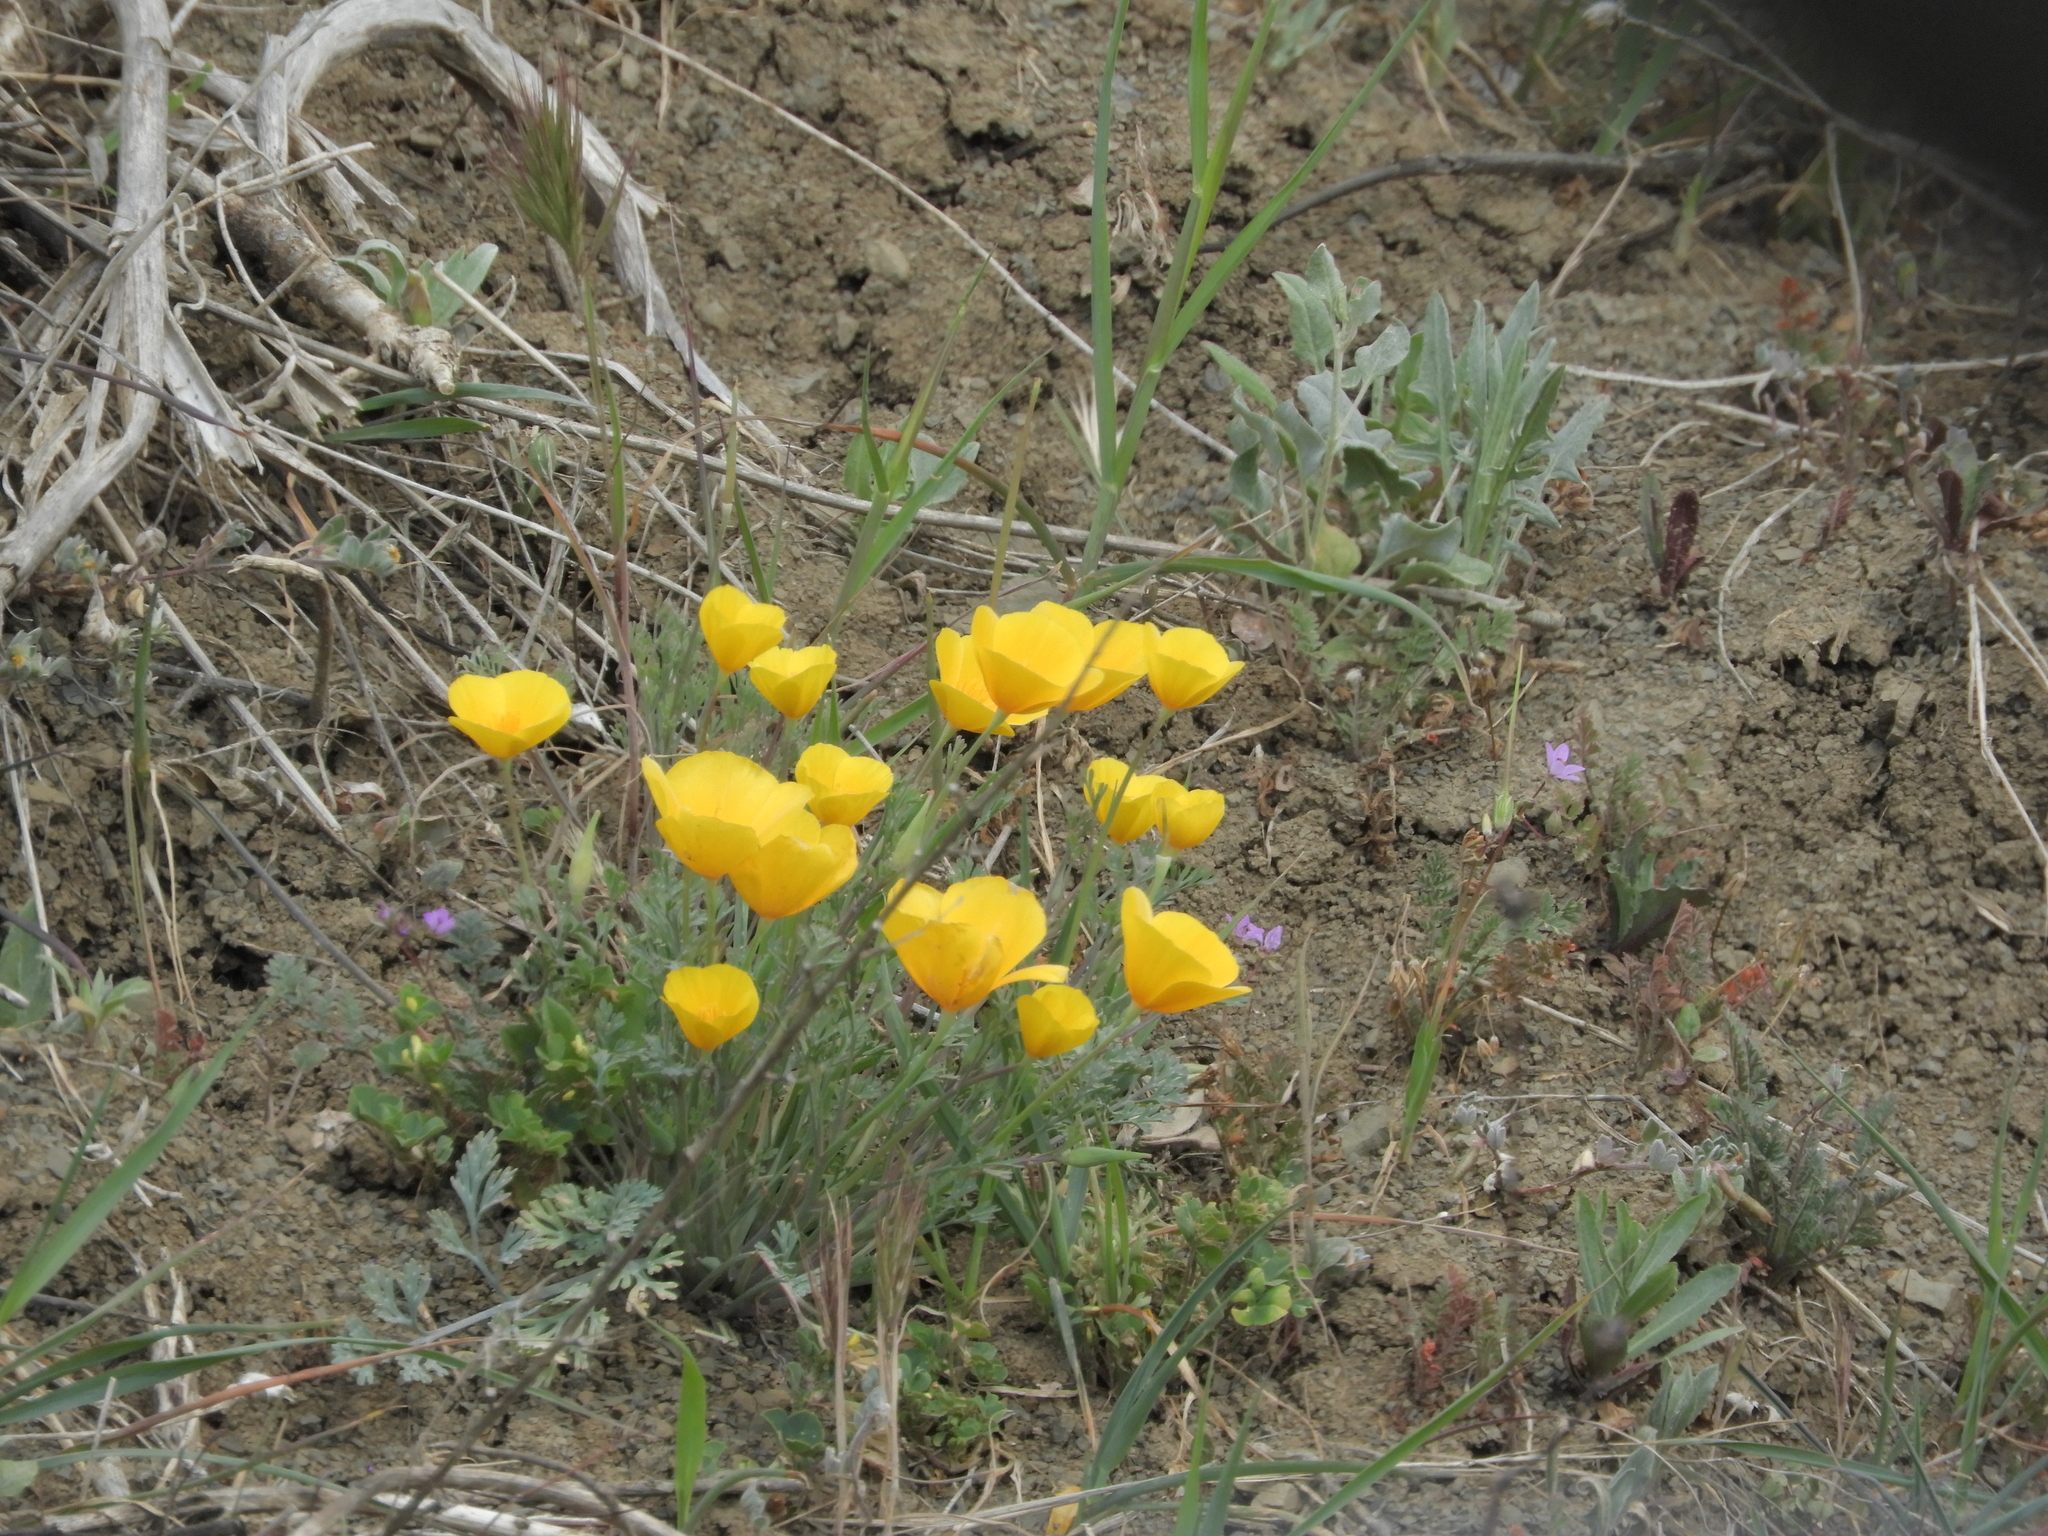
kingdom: Plantae
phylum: Tracheophyta
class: Magnoliopsida
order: Ranunculales
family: Papaveraceae
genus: Eschscholzia
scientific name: Eschscholzia caespitosa
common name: Tufted california-poppy
